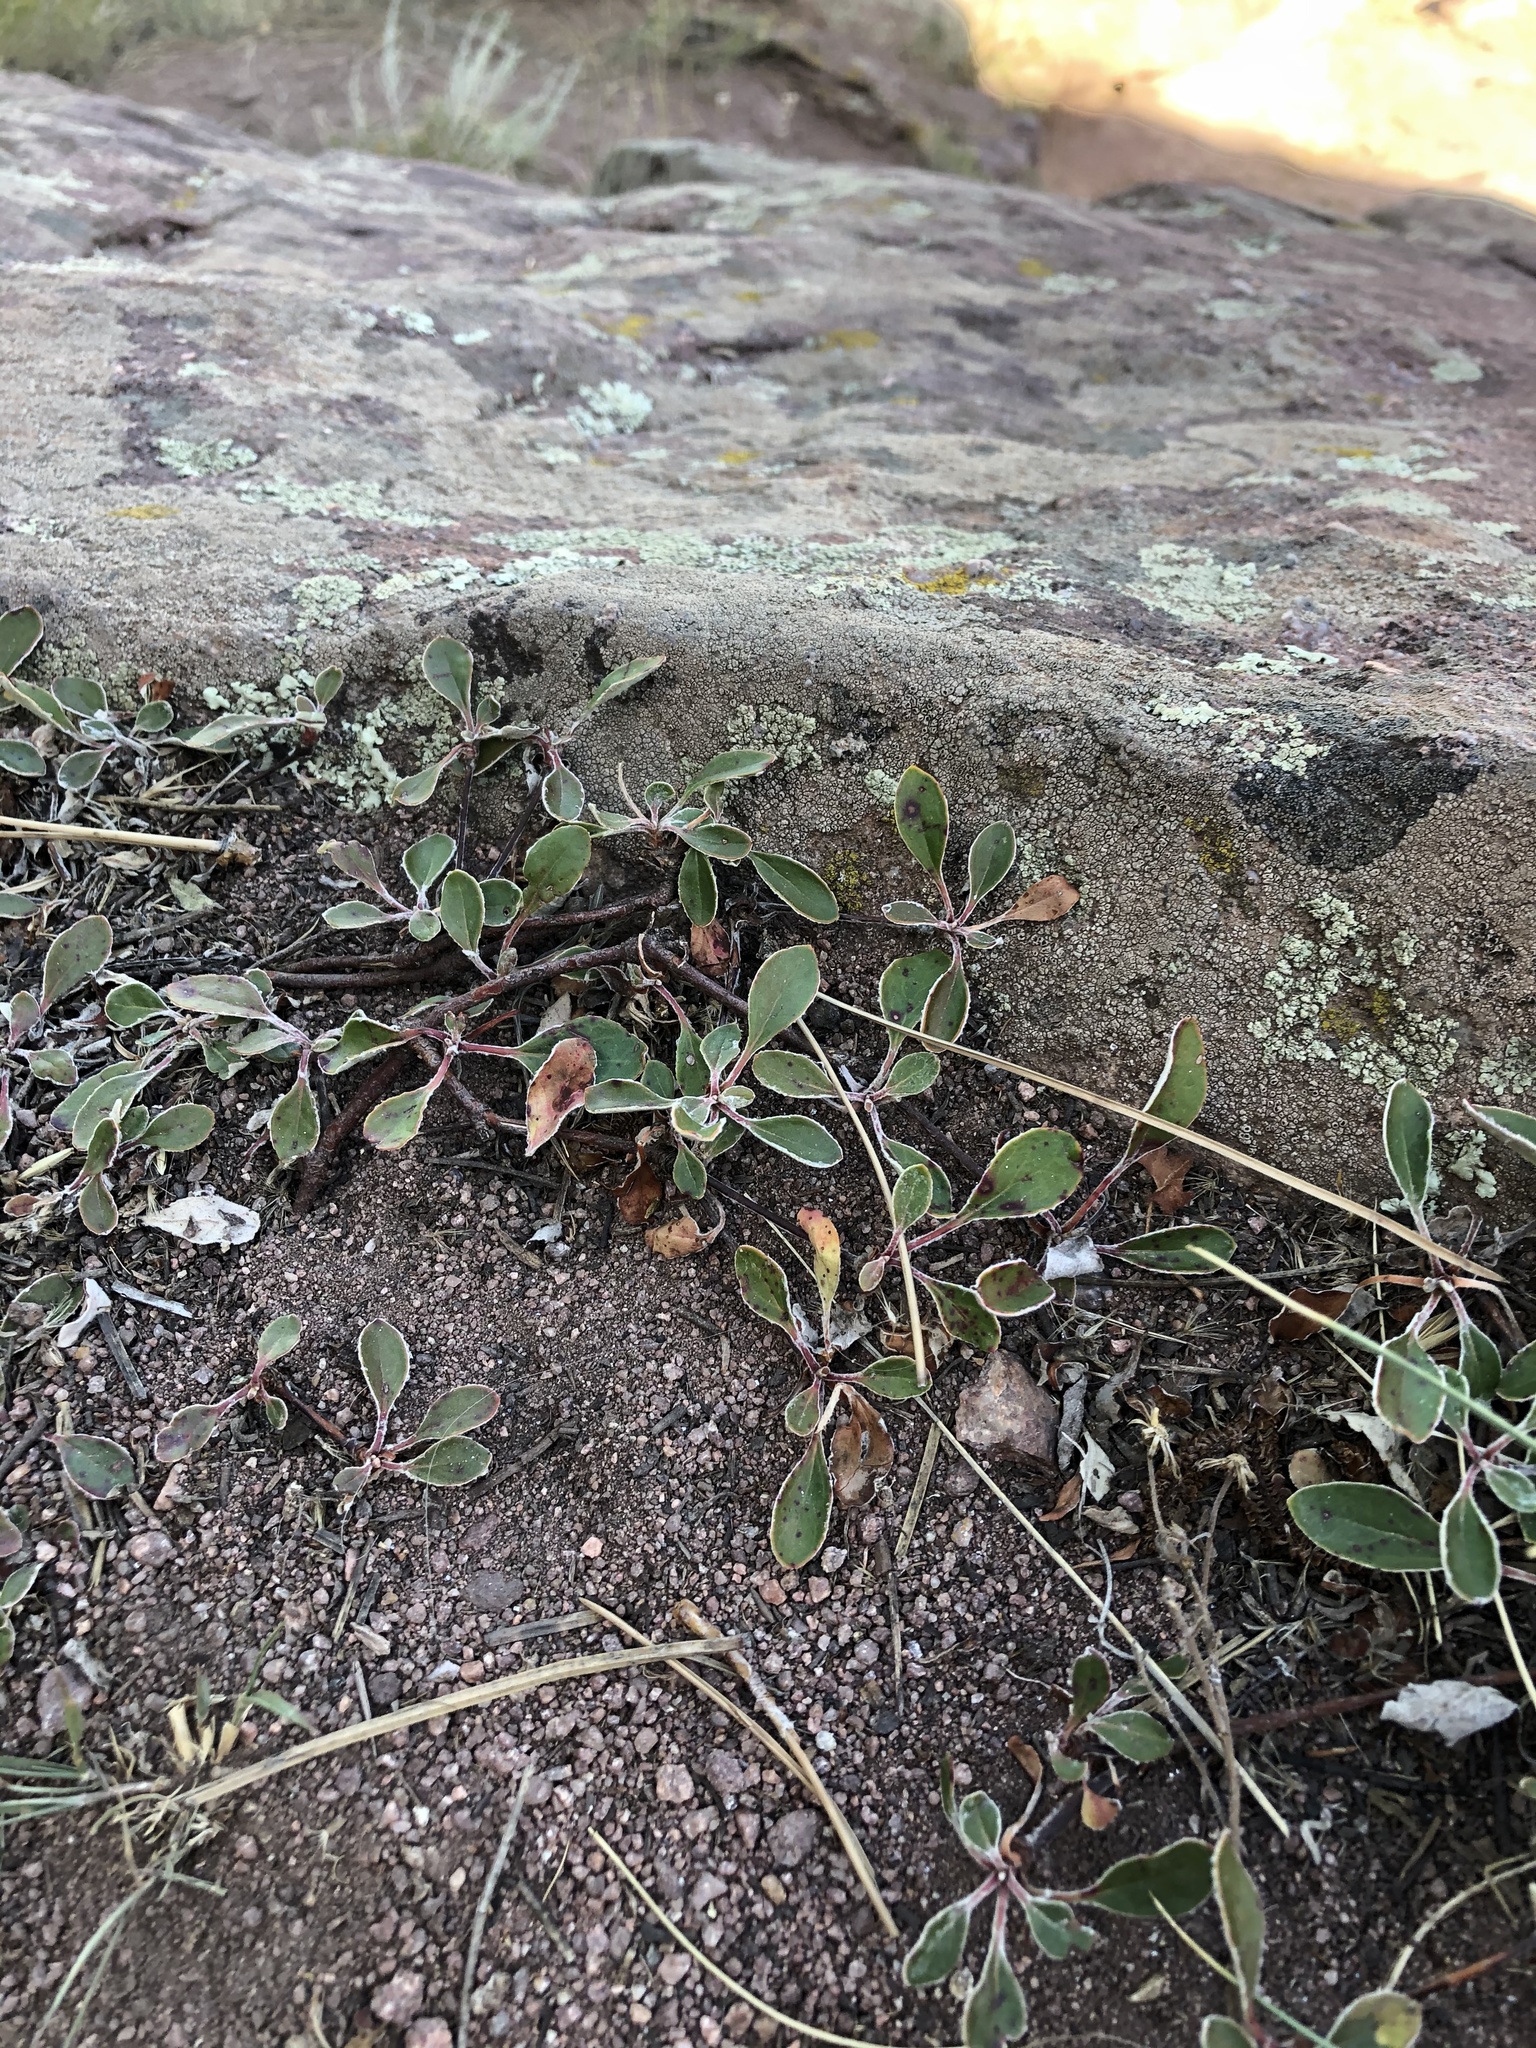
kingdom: Plantae
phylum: Tracheophyta
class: Magnoliopsida
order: Caryophyllales
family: Polygonaceae
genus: Eriogonum
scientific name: Eriogonum umbellatum
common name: Sulfur-buckwheat
